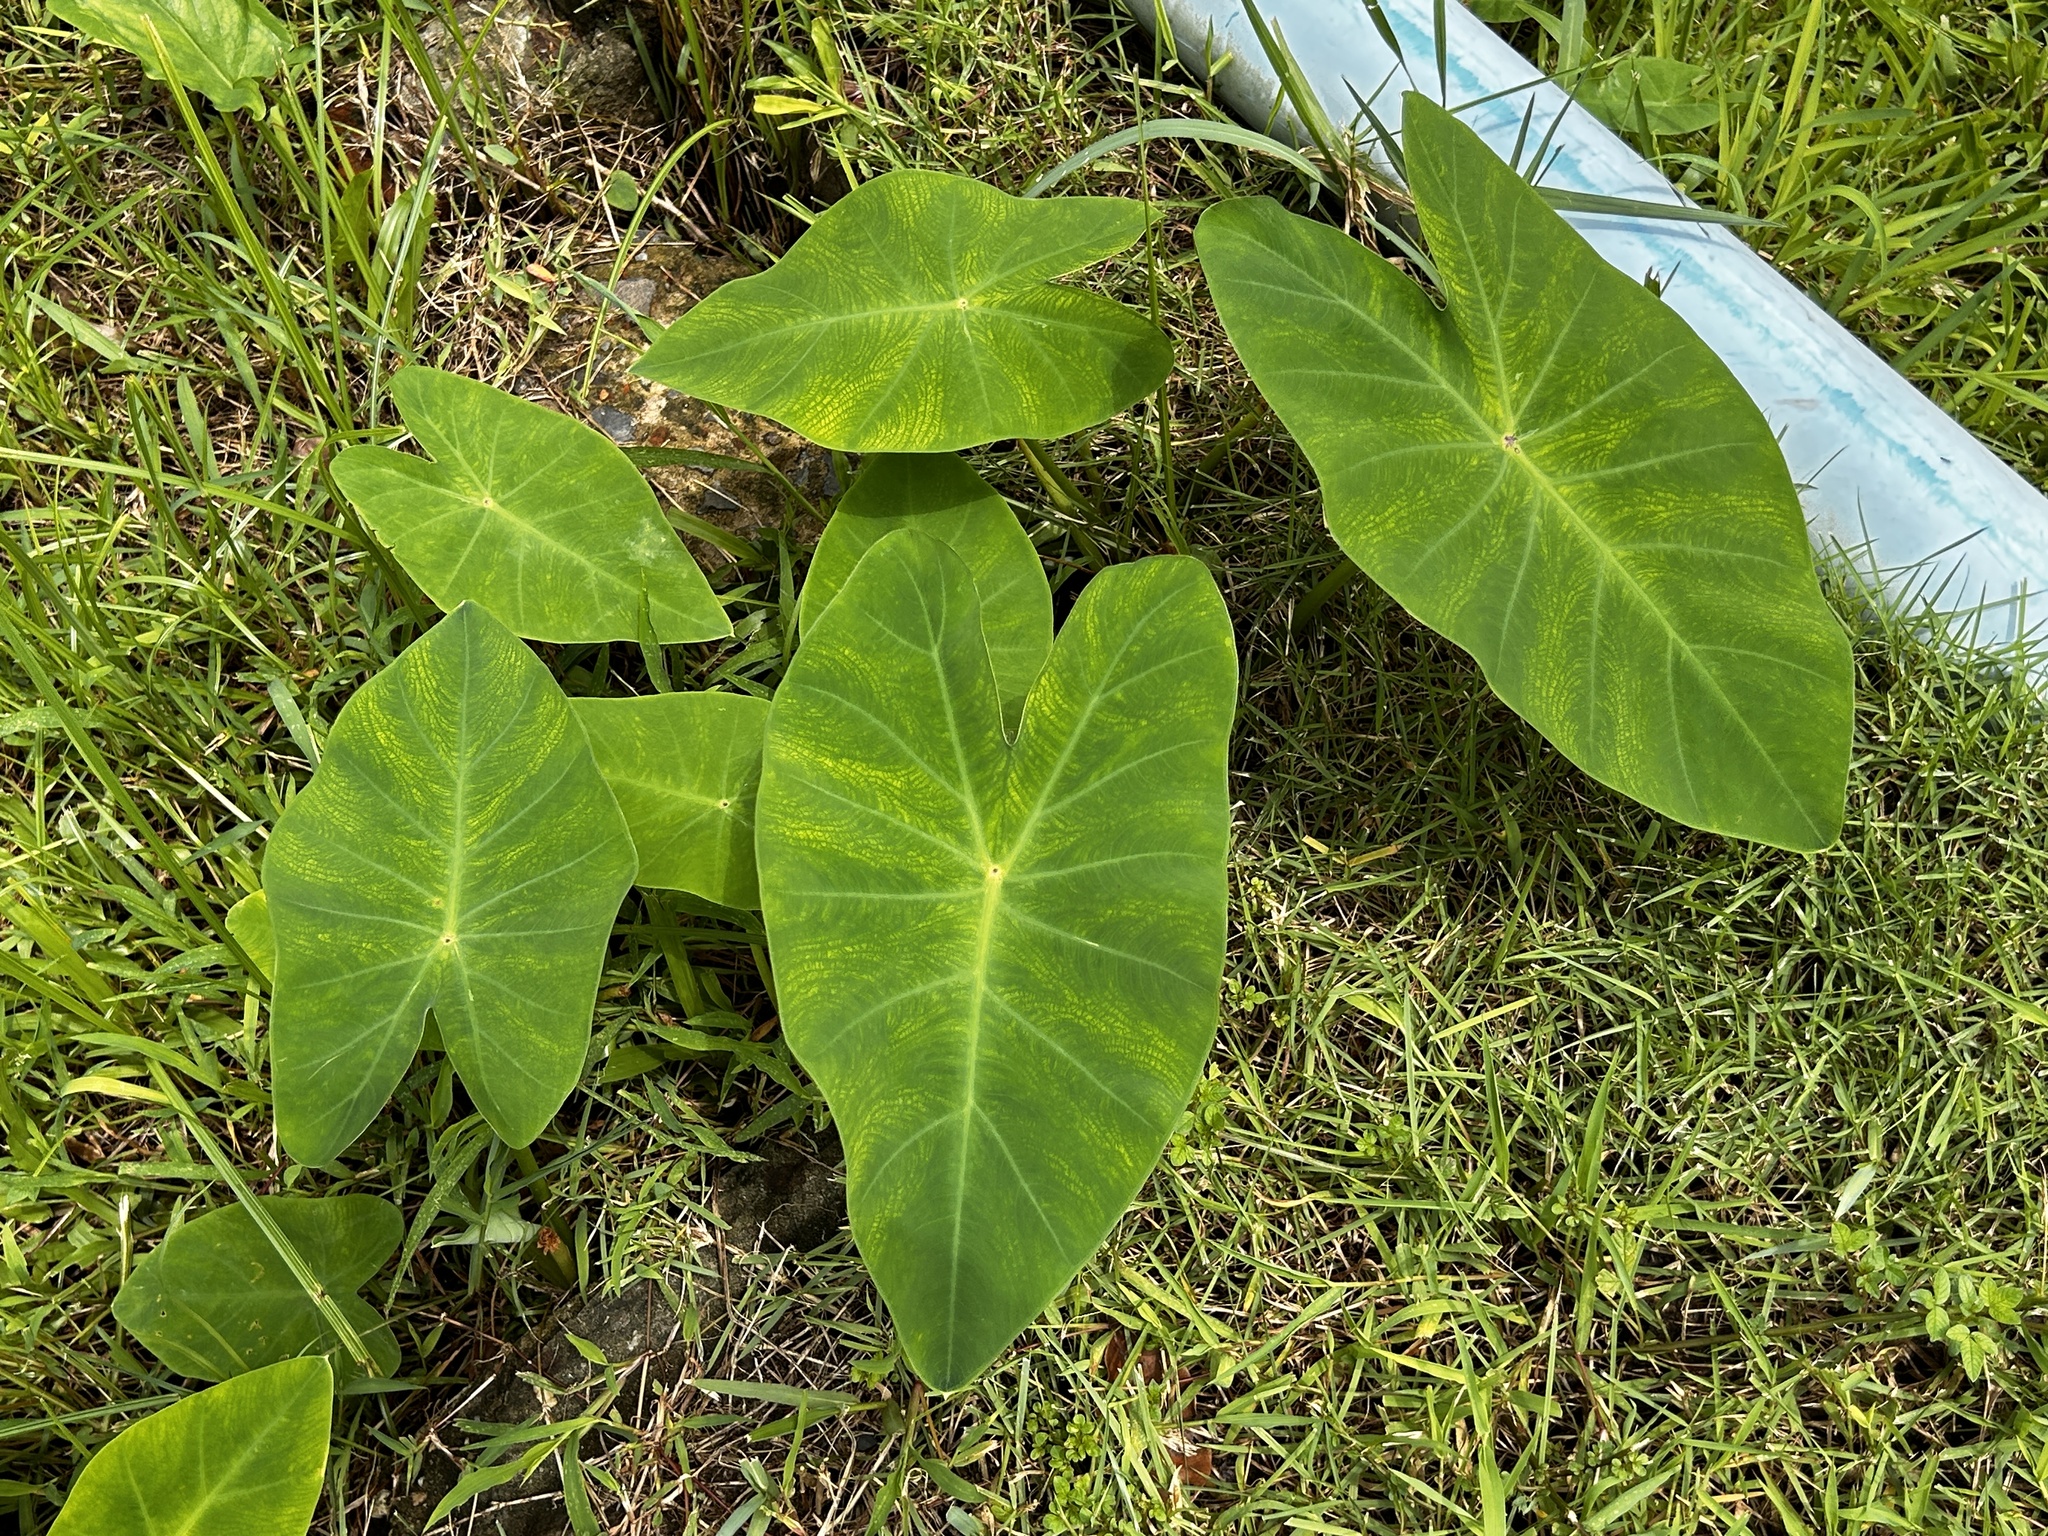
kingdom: Plantae
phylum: Tracheophyta
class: Liliopsida
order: Alismatales
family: Araceae
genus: Colocasia
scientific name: Colocasia esculenta
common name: Taro
